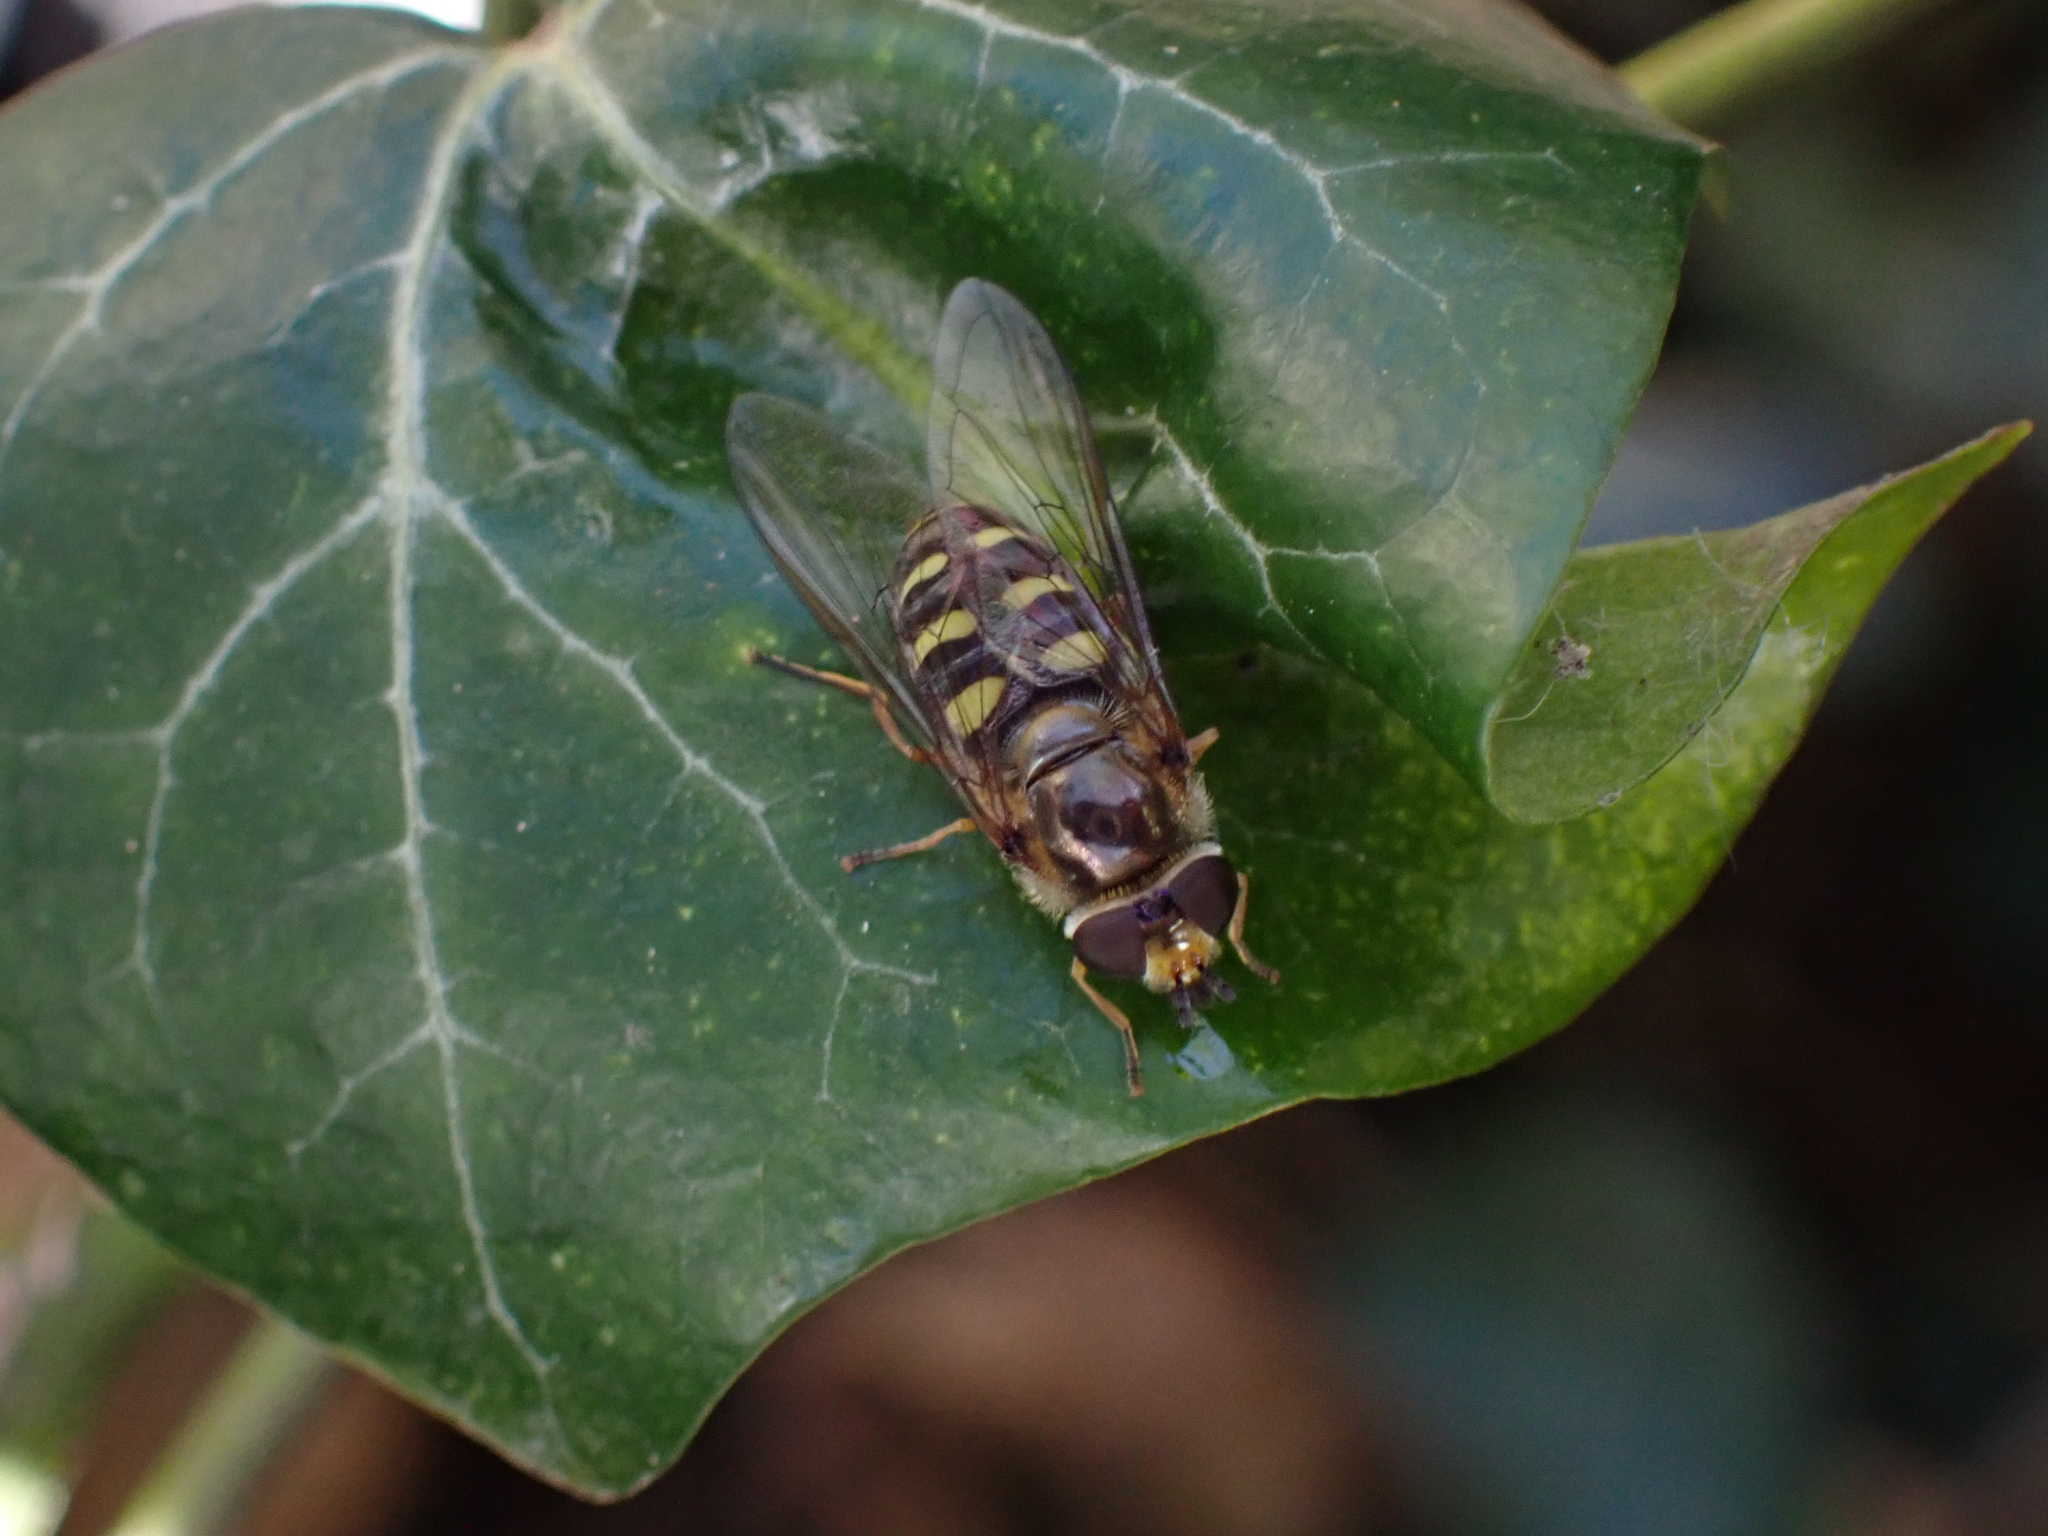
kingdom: Animalia
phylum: Arthropoda
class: Insecta
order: Diptera
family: Syrphidae
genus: Eupeodes
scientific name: Eupeodes luniger
